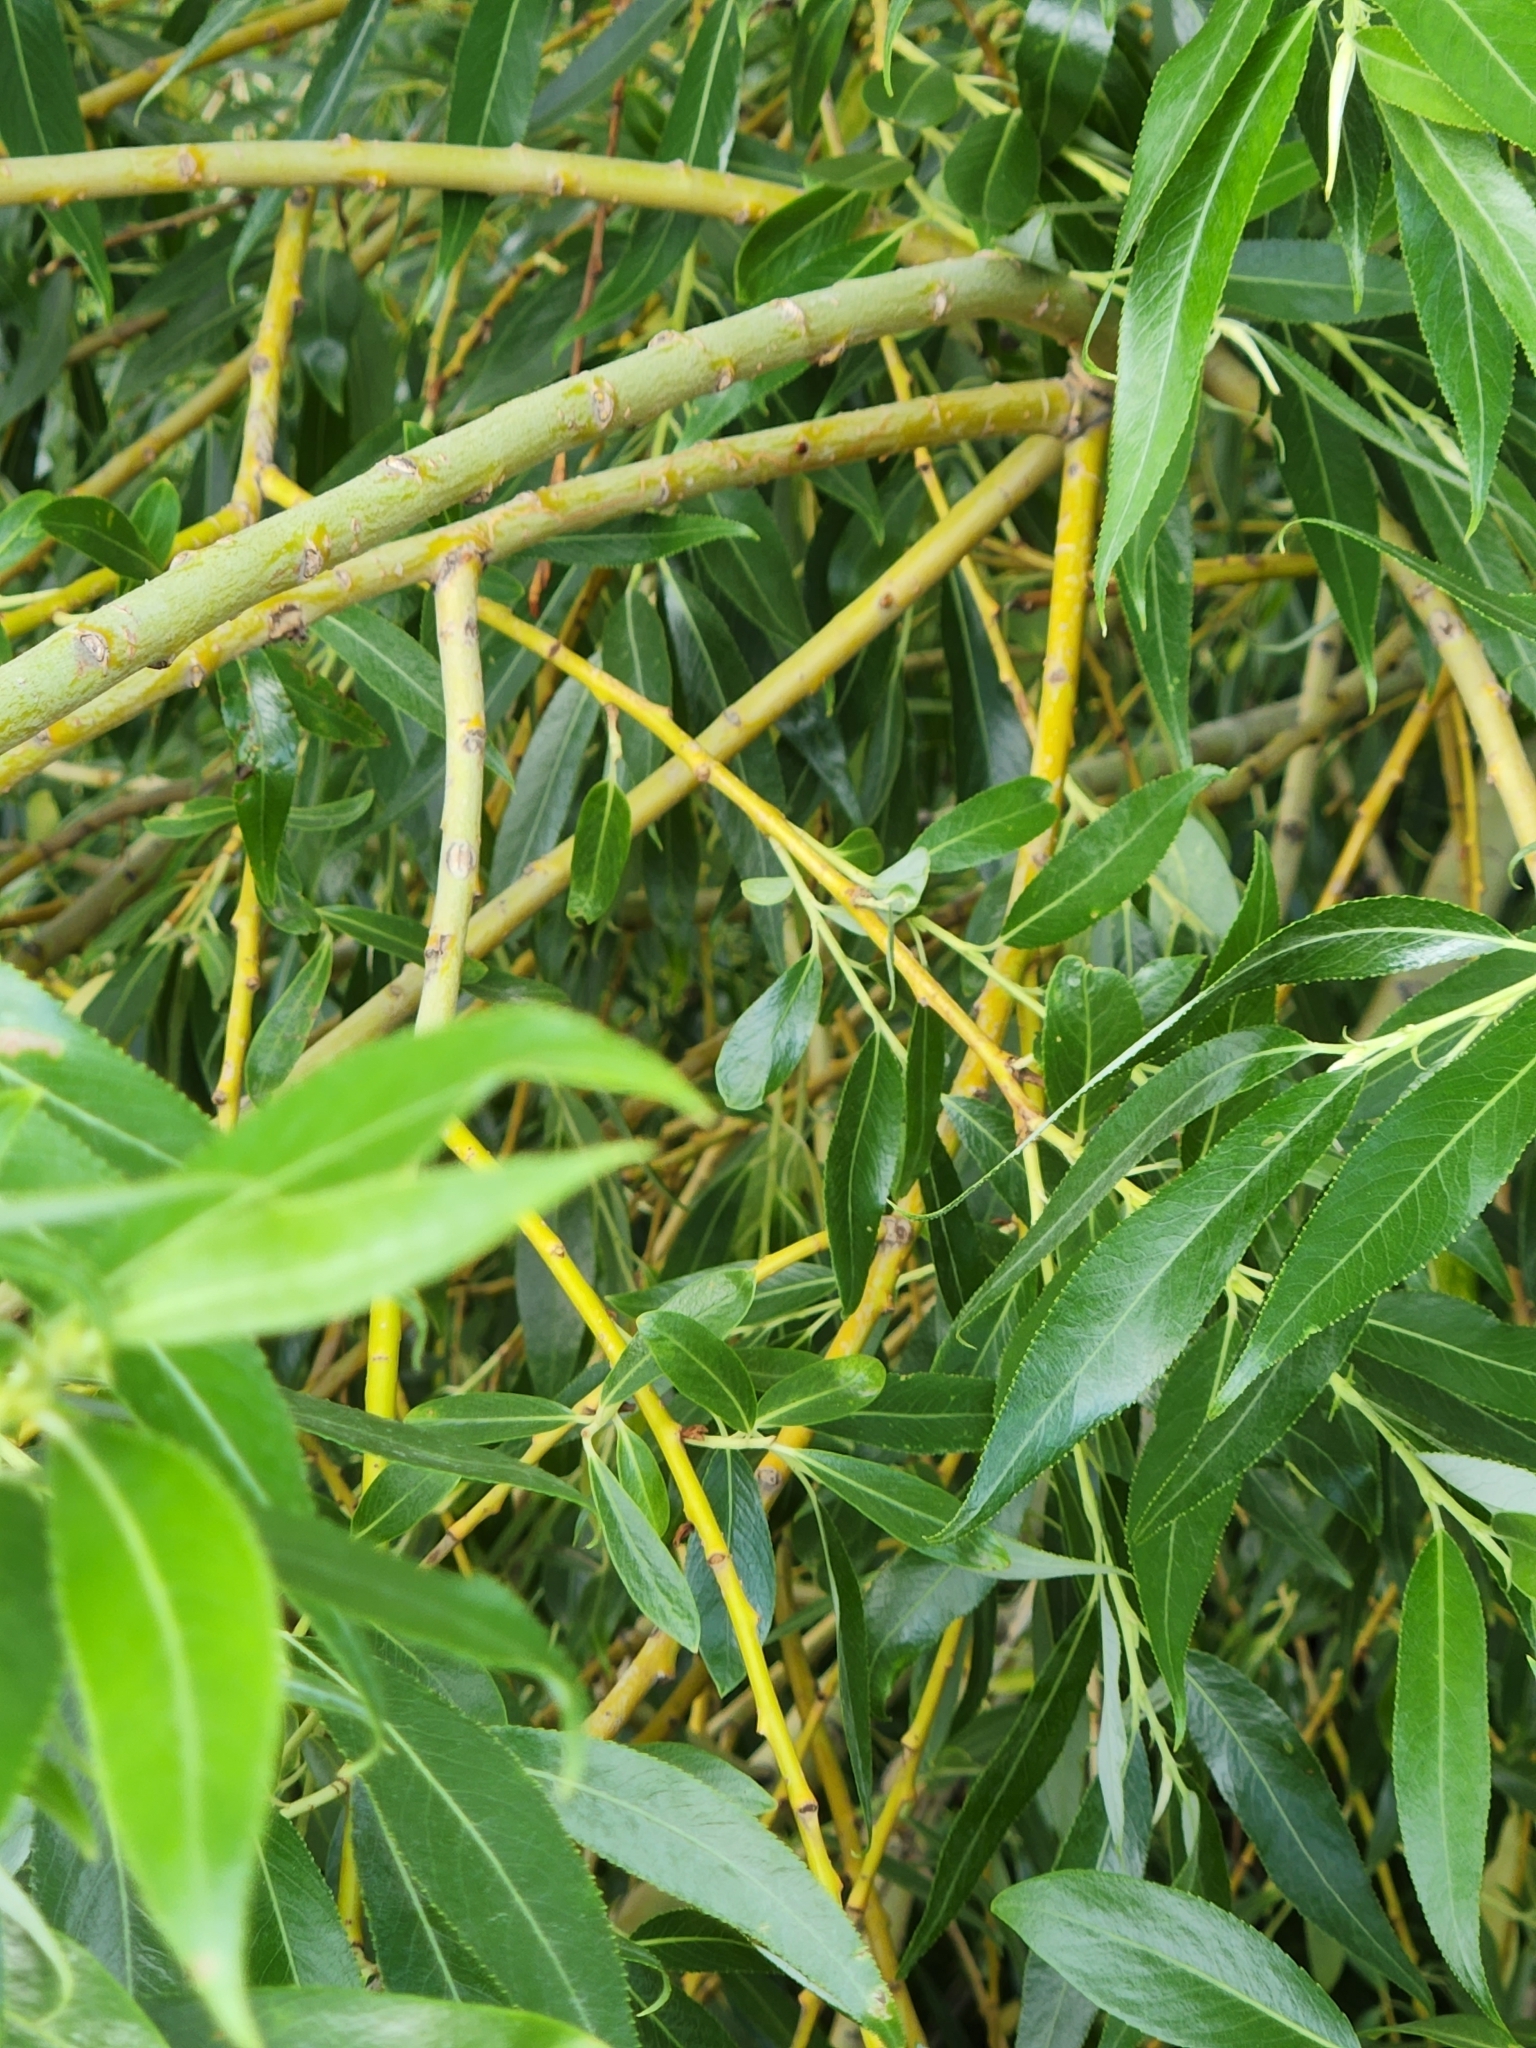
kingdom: Plantae
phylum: Tracheophyta
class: Magnoliopsida
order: Malpighiales
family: Salicaceae
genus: Salix
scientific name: Salix fragilis
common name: Crack willow
